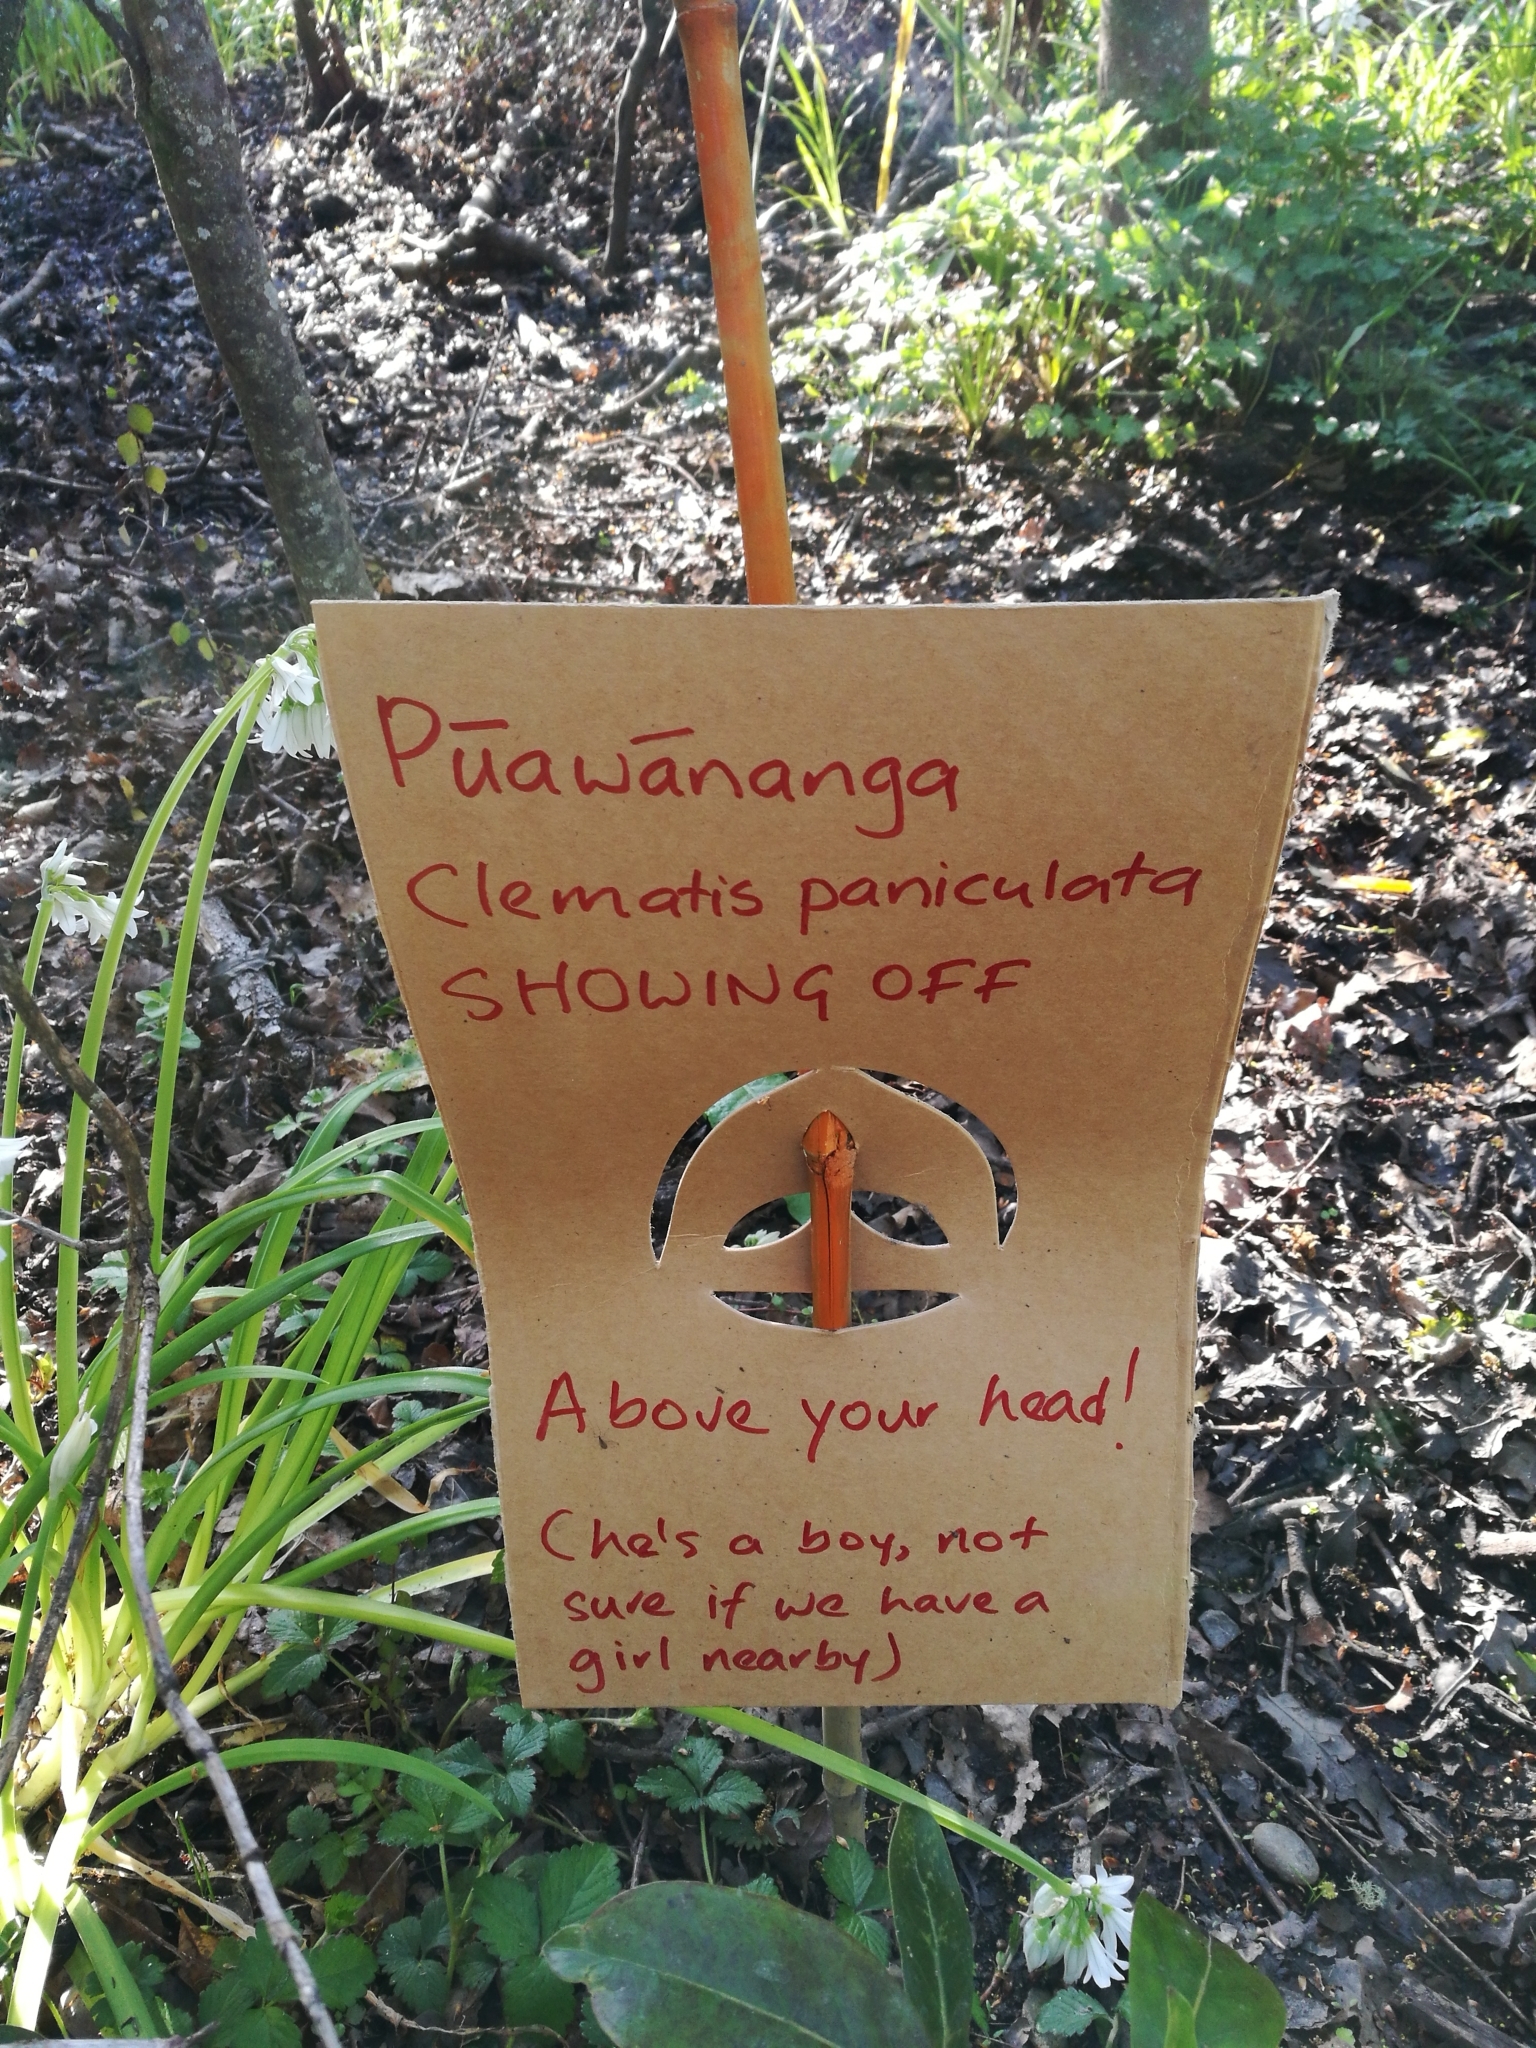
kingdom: Plantae
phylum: Tracheophyta
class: Magnoliopsida
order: Ranunculales
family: Ranunculaceae
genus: Clematis
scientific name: Clematis paniculata
